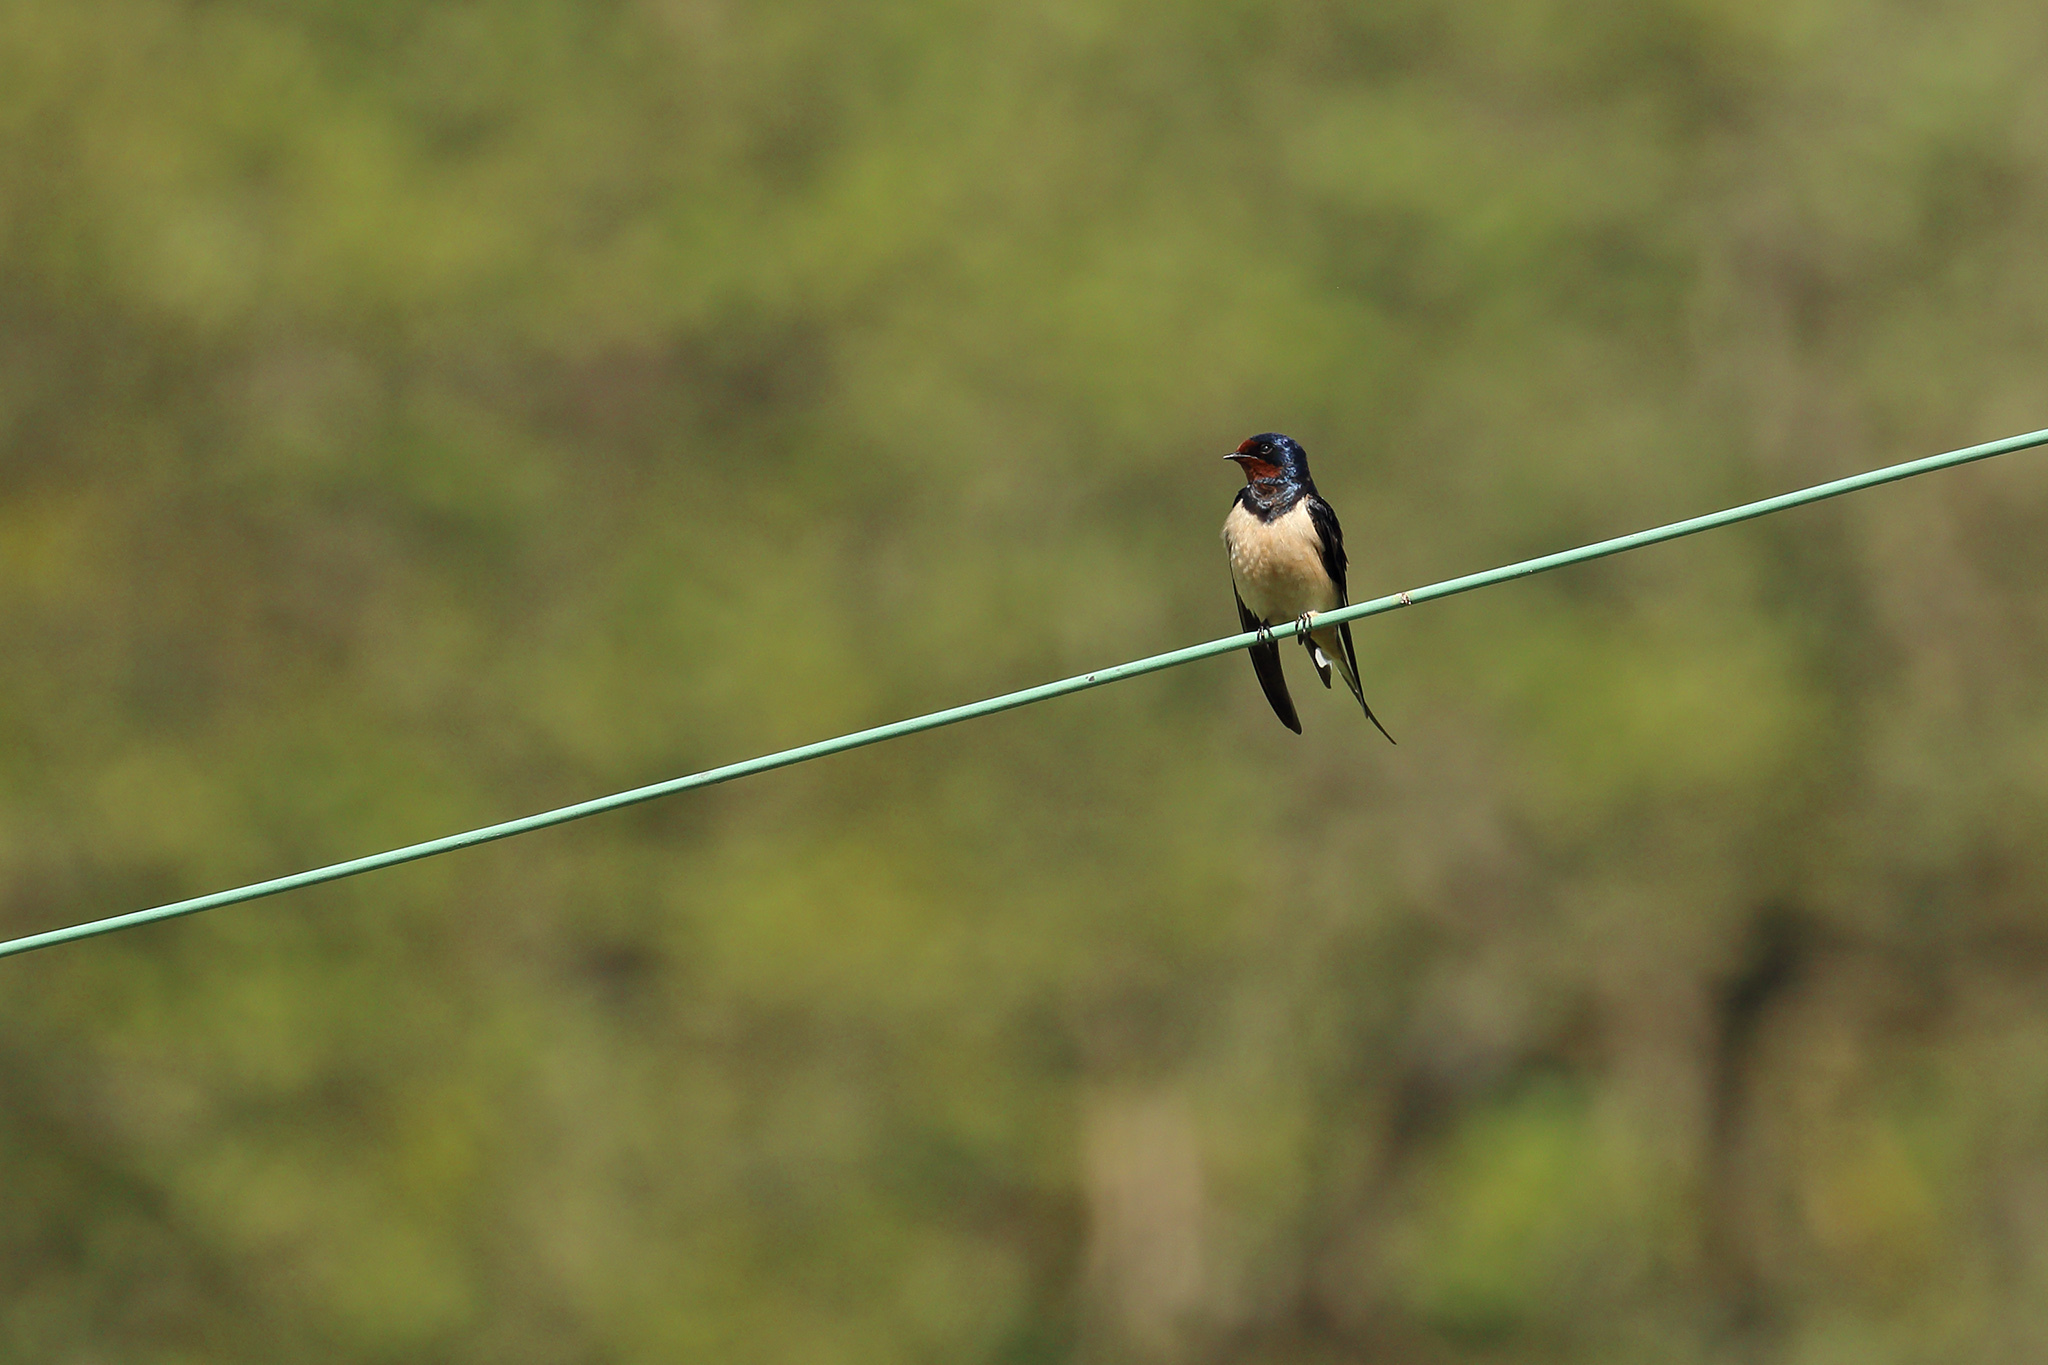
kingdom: Animalia
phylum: Chordata
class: Aves
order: Passeriformes
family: Hirundinidae
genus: Hirundo
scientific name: Hirundo rustica
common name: Barn swallow
